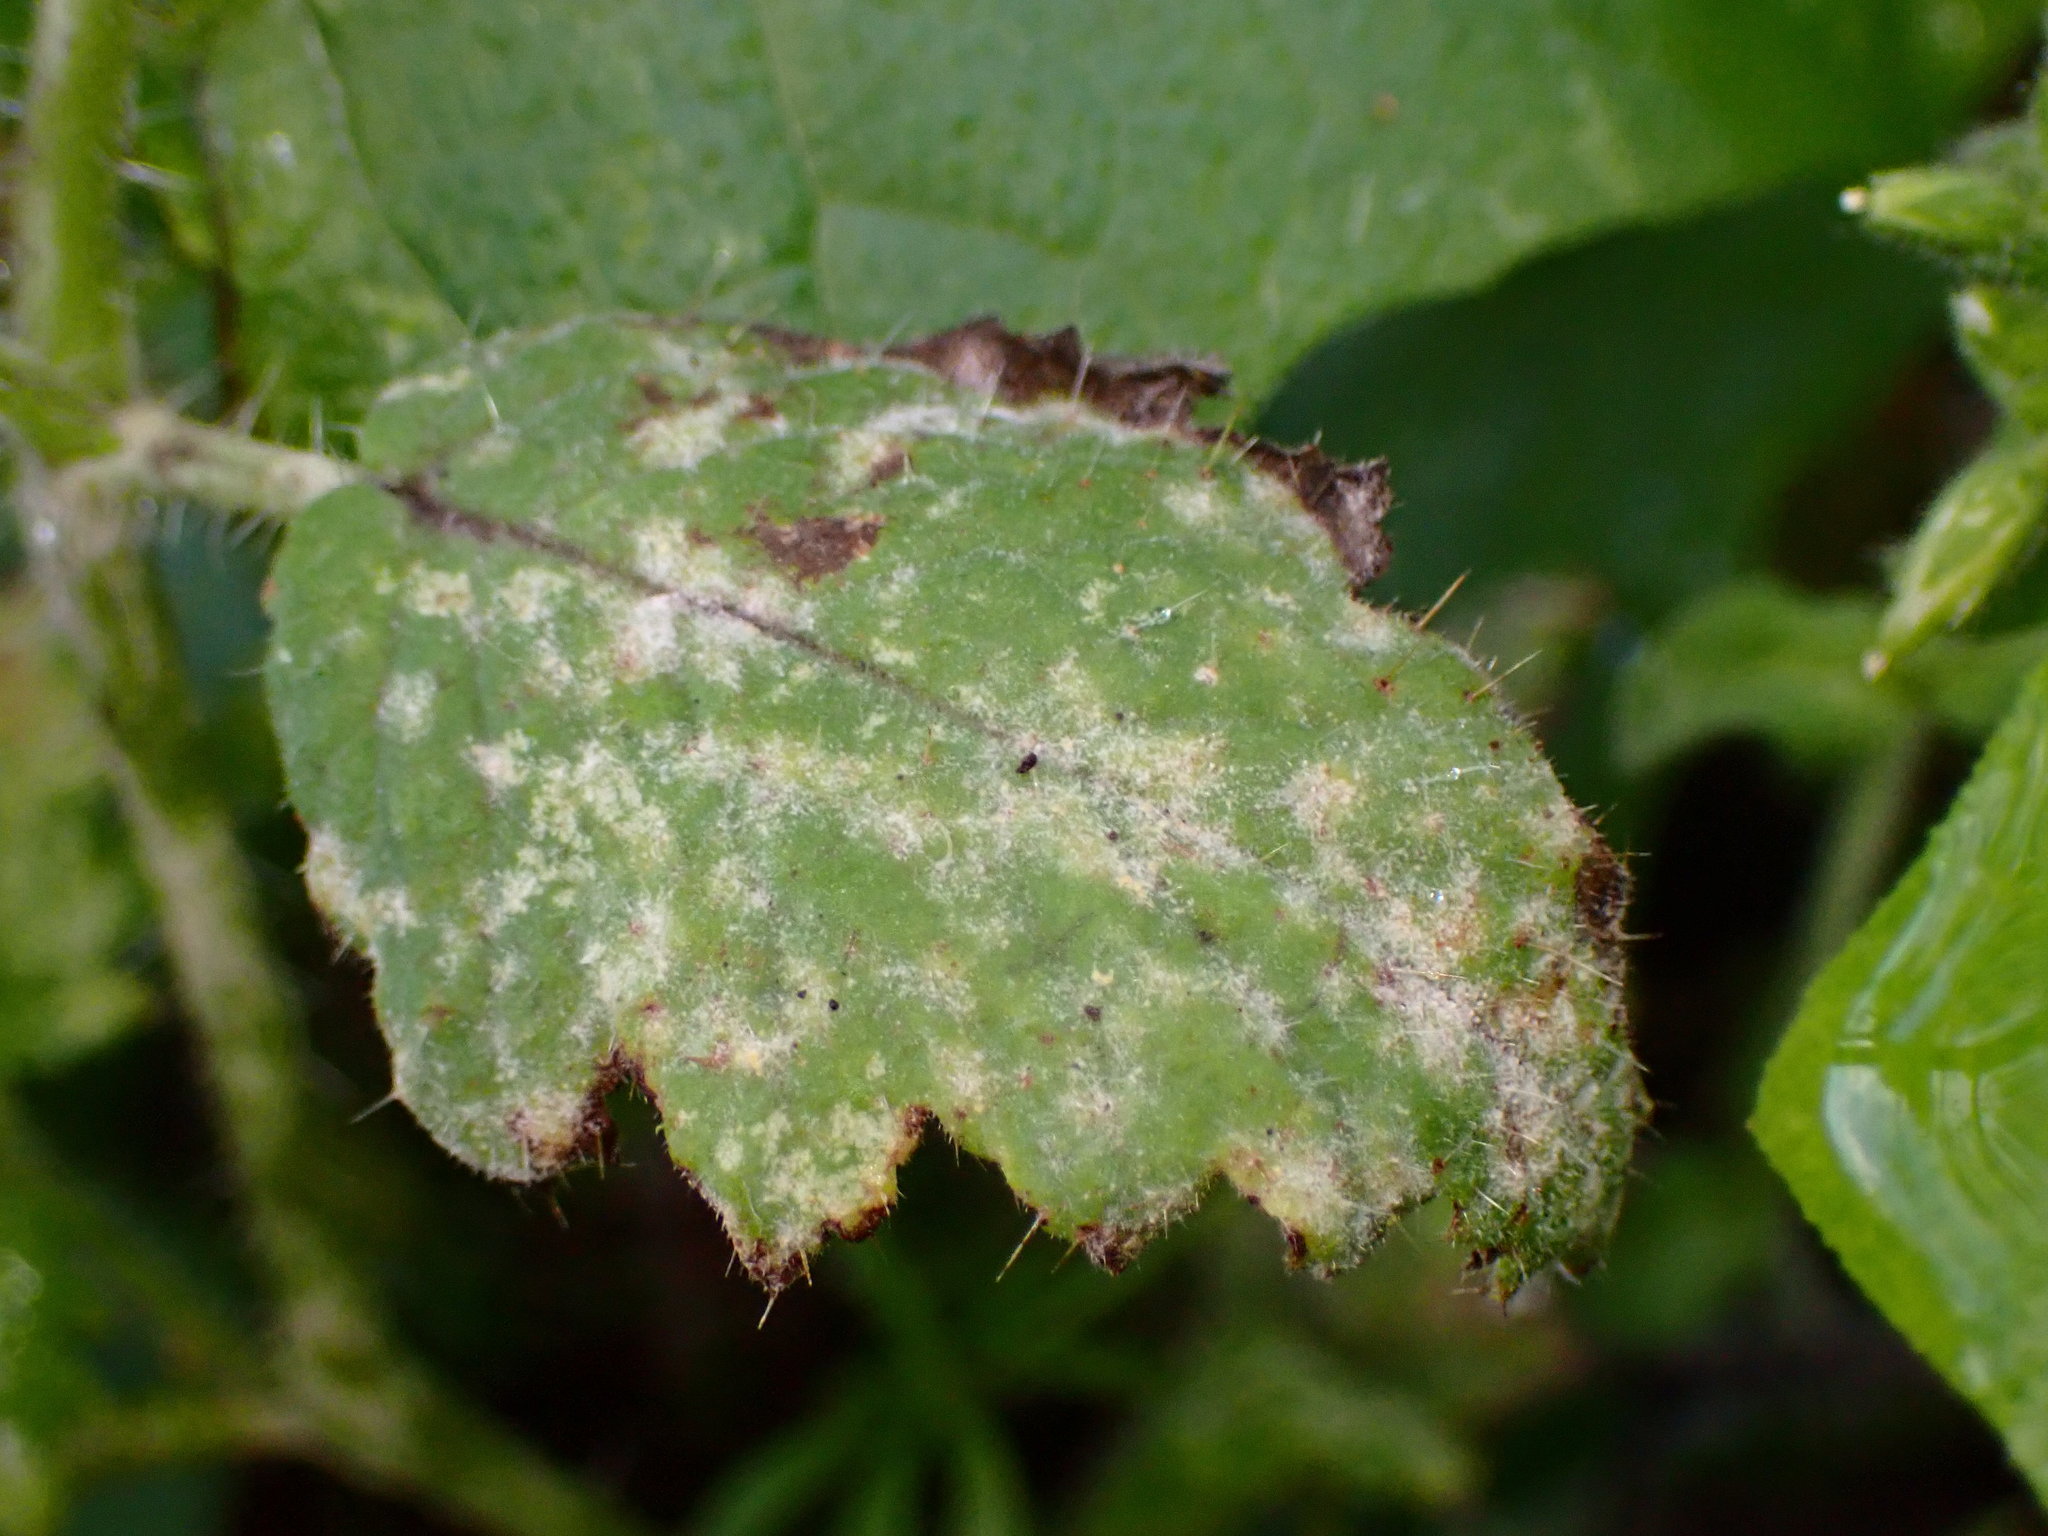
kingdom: Plantae
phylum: Tracheophyta
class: Magnoliopsida
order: Boraginales
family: Hydrophyllaceae
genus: Phacelia
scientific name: Phacelia malvifolia
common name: Mallow-leaf phacelia
